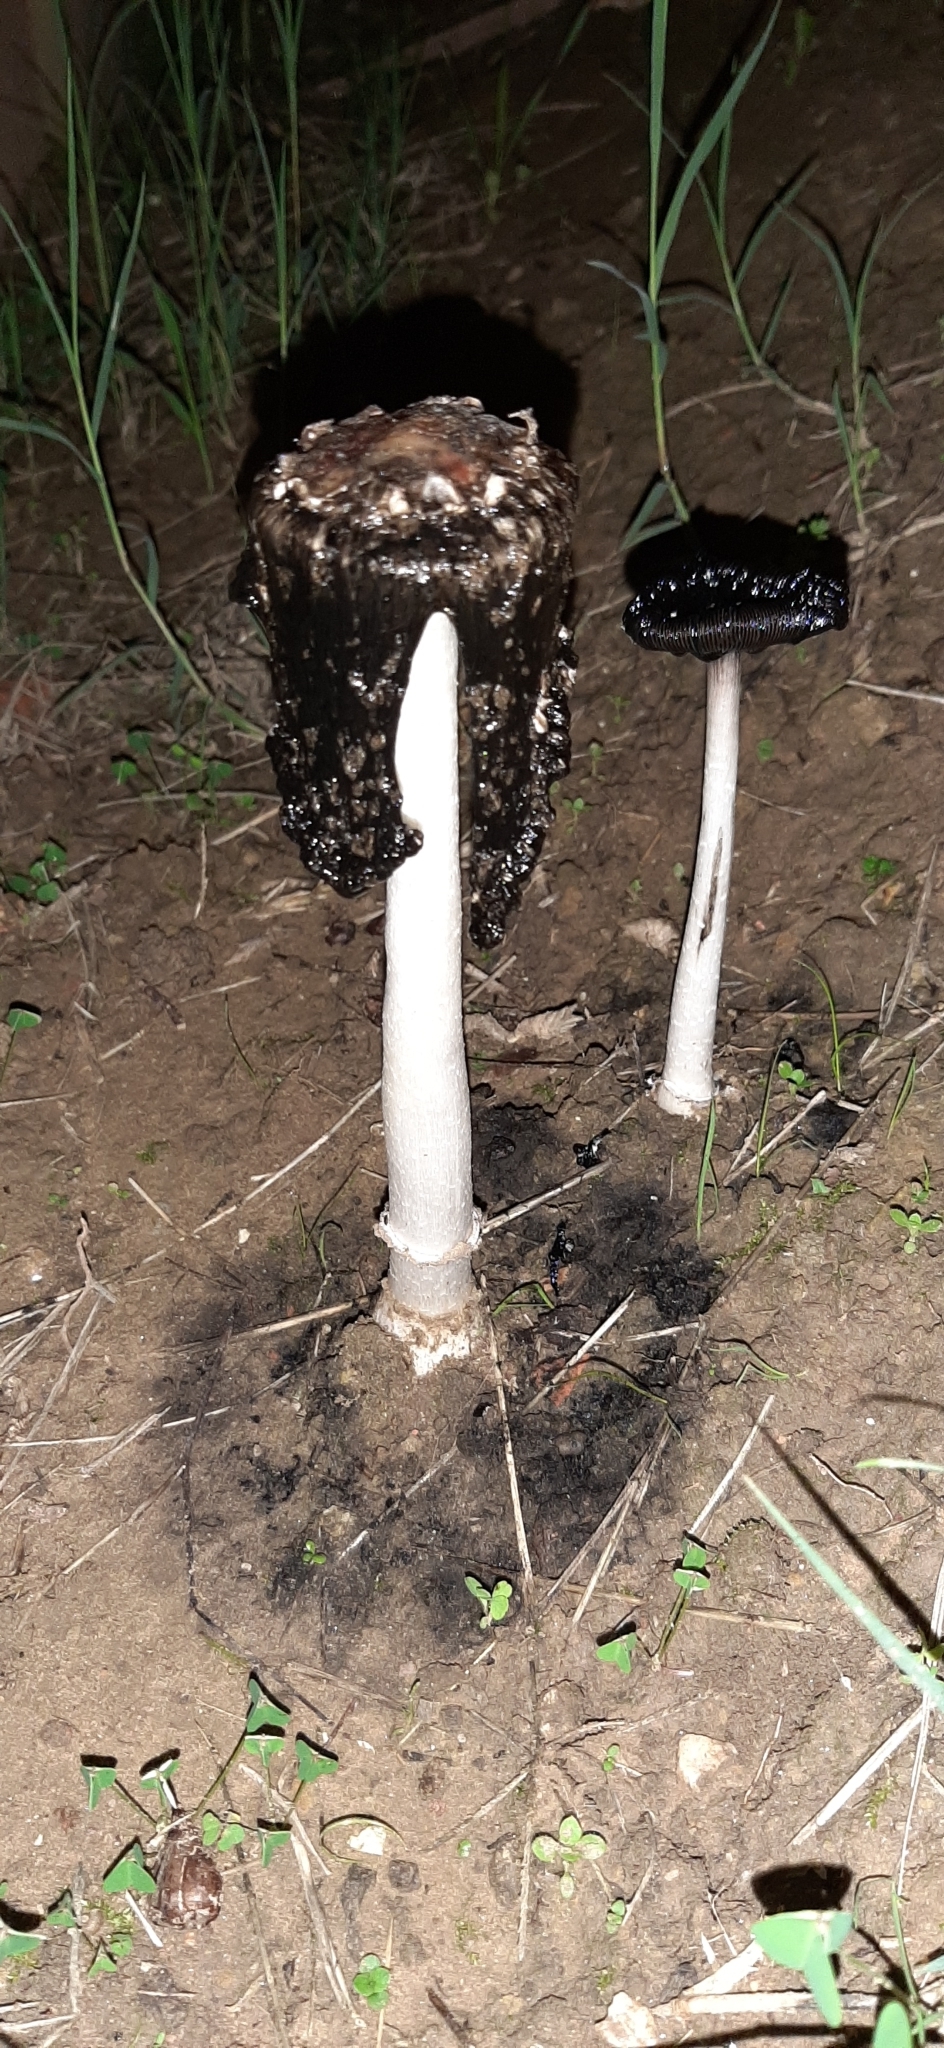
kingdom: Fungi
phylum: Basidiomycota
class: Agaricomycetes
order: Agaricales
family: Agaricaceae
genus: Coprinus
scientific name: Coprinus comatus
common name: Lawyer's wig
